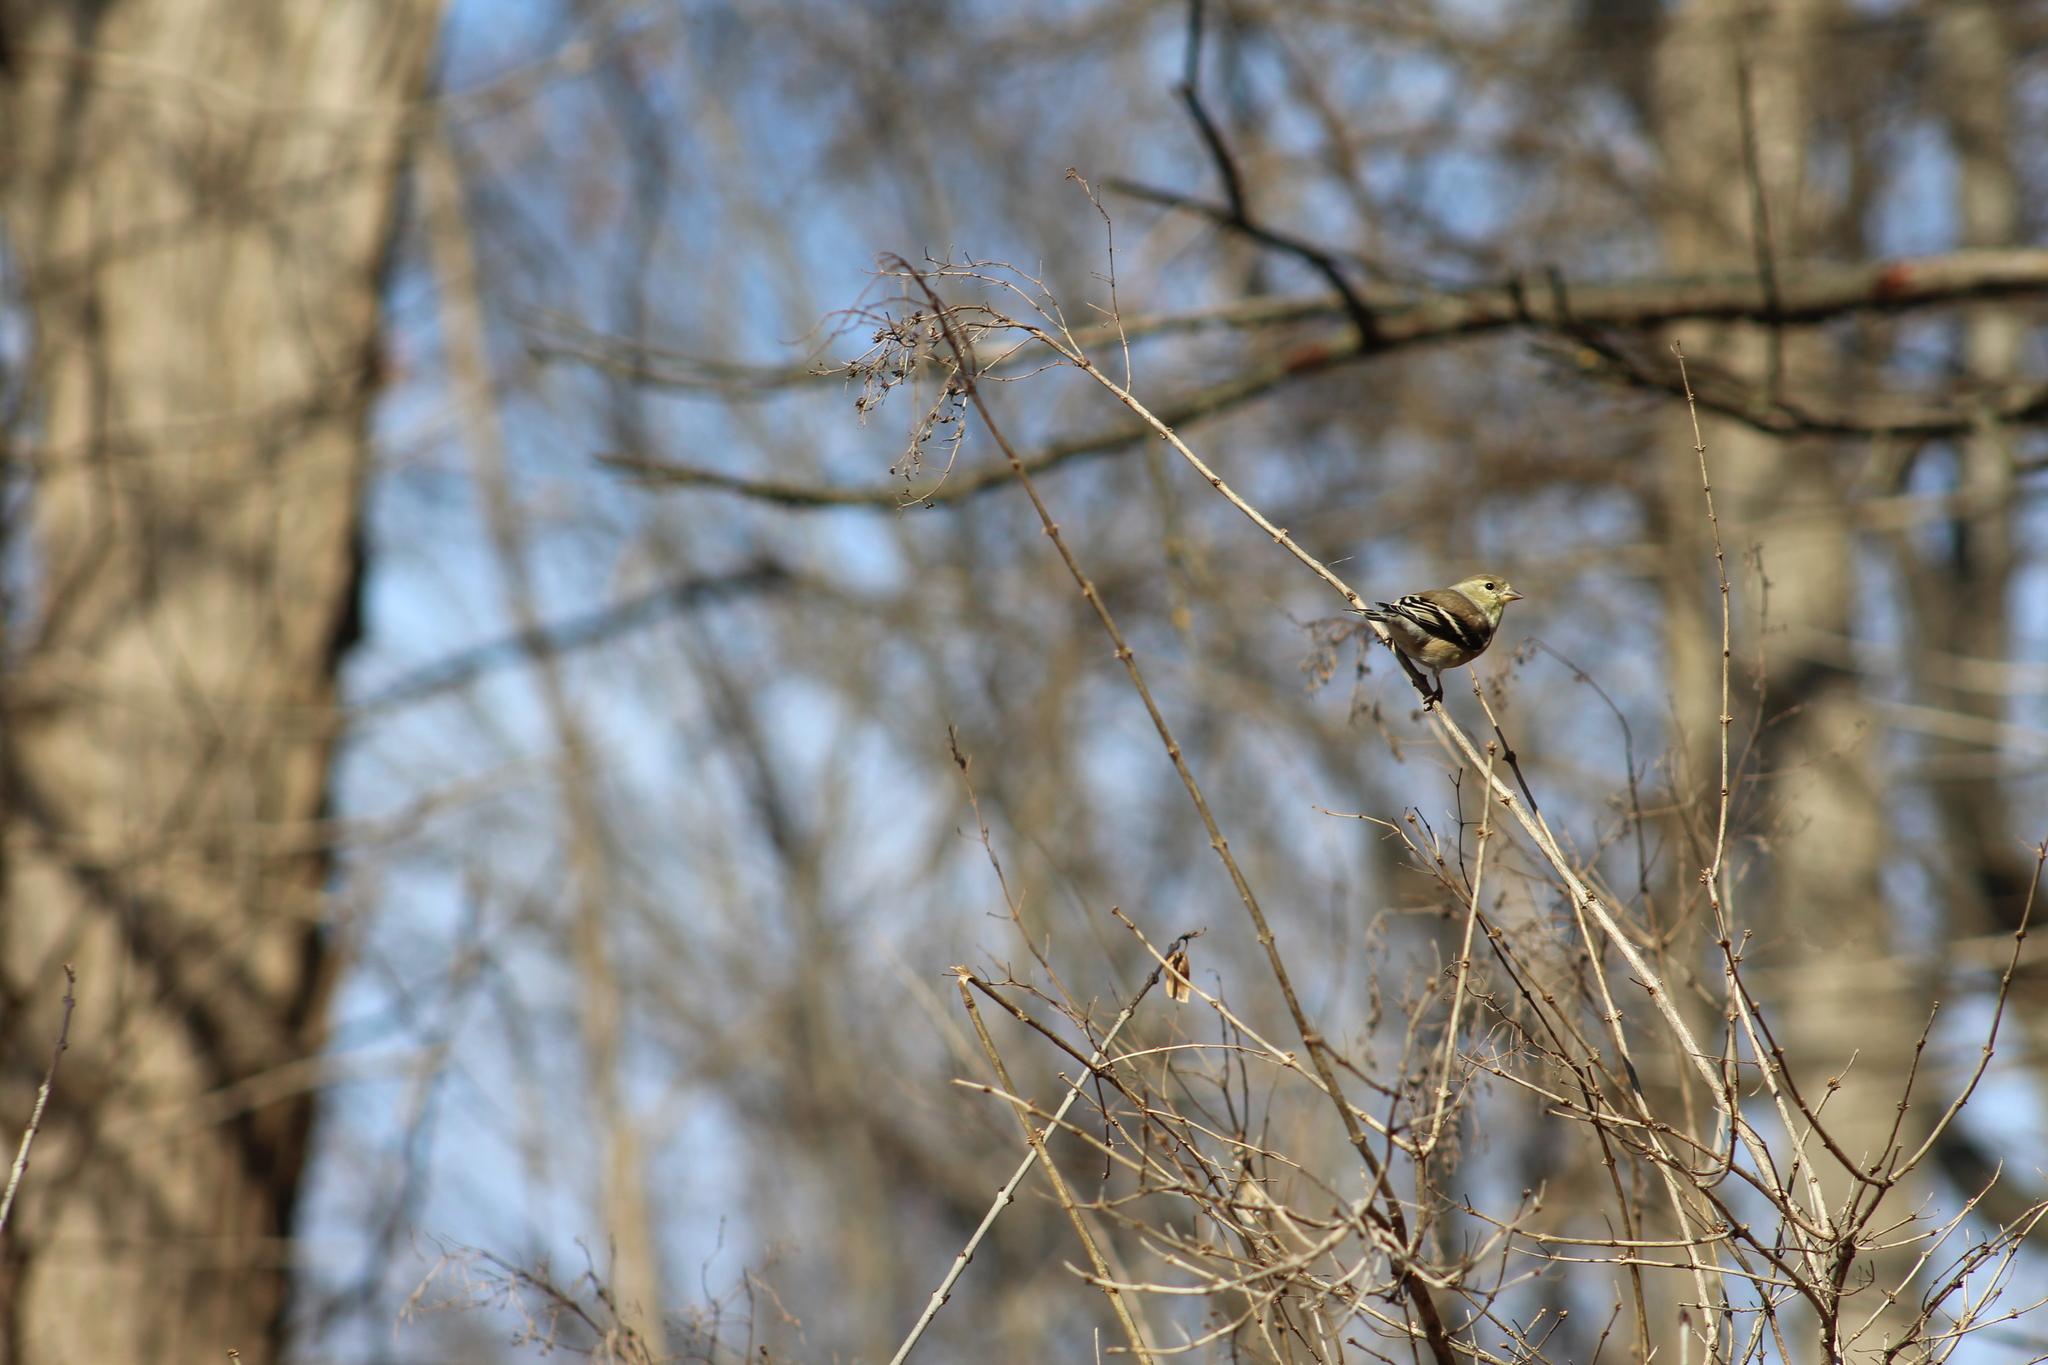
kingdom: Animalia
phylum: Chordata
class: Aves
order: Passeriformes
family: Fringillidae
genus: Spinus
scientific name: Spinus tristis
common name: American goldfinch
